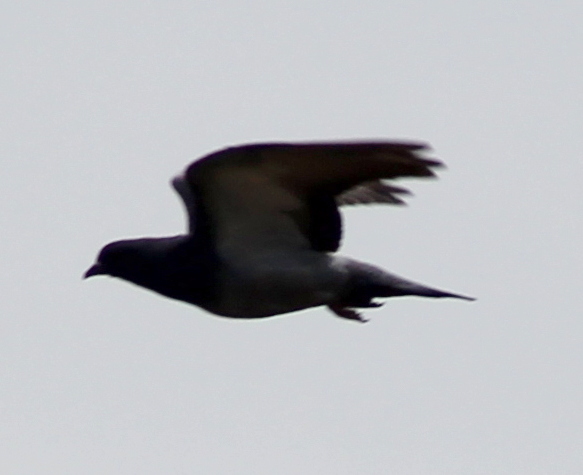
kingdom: Animalia
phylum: Chordata
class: Aves
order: Columbiformes
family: Columbidae
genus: Columba
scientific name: Columba livia
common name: Rock pigeon
